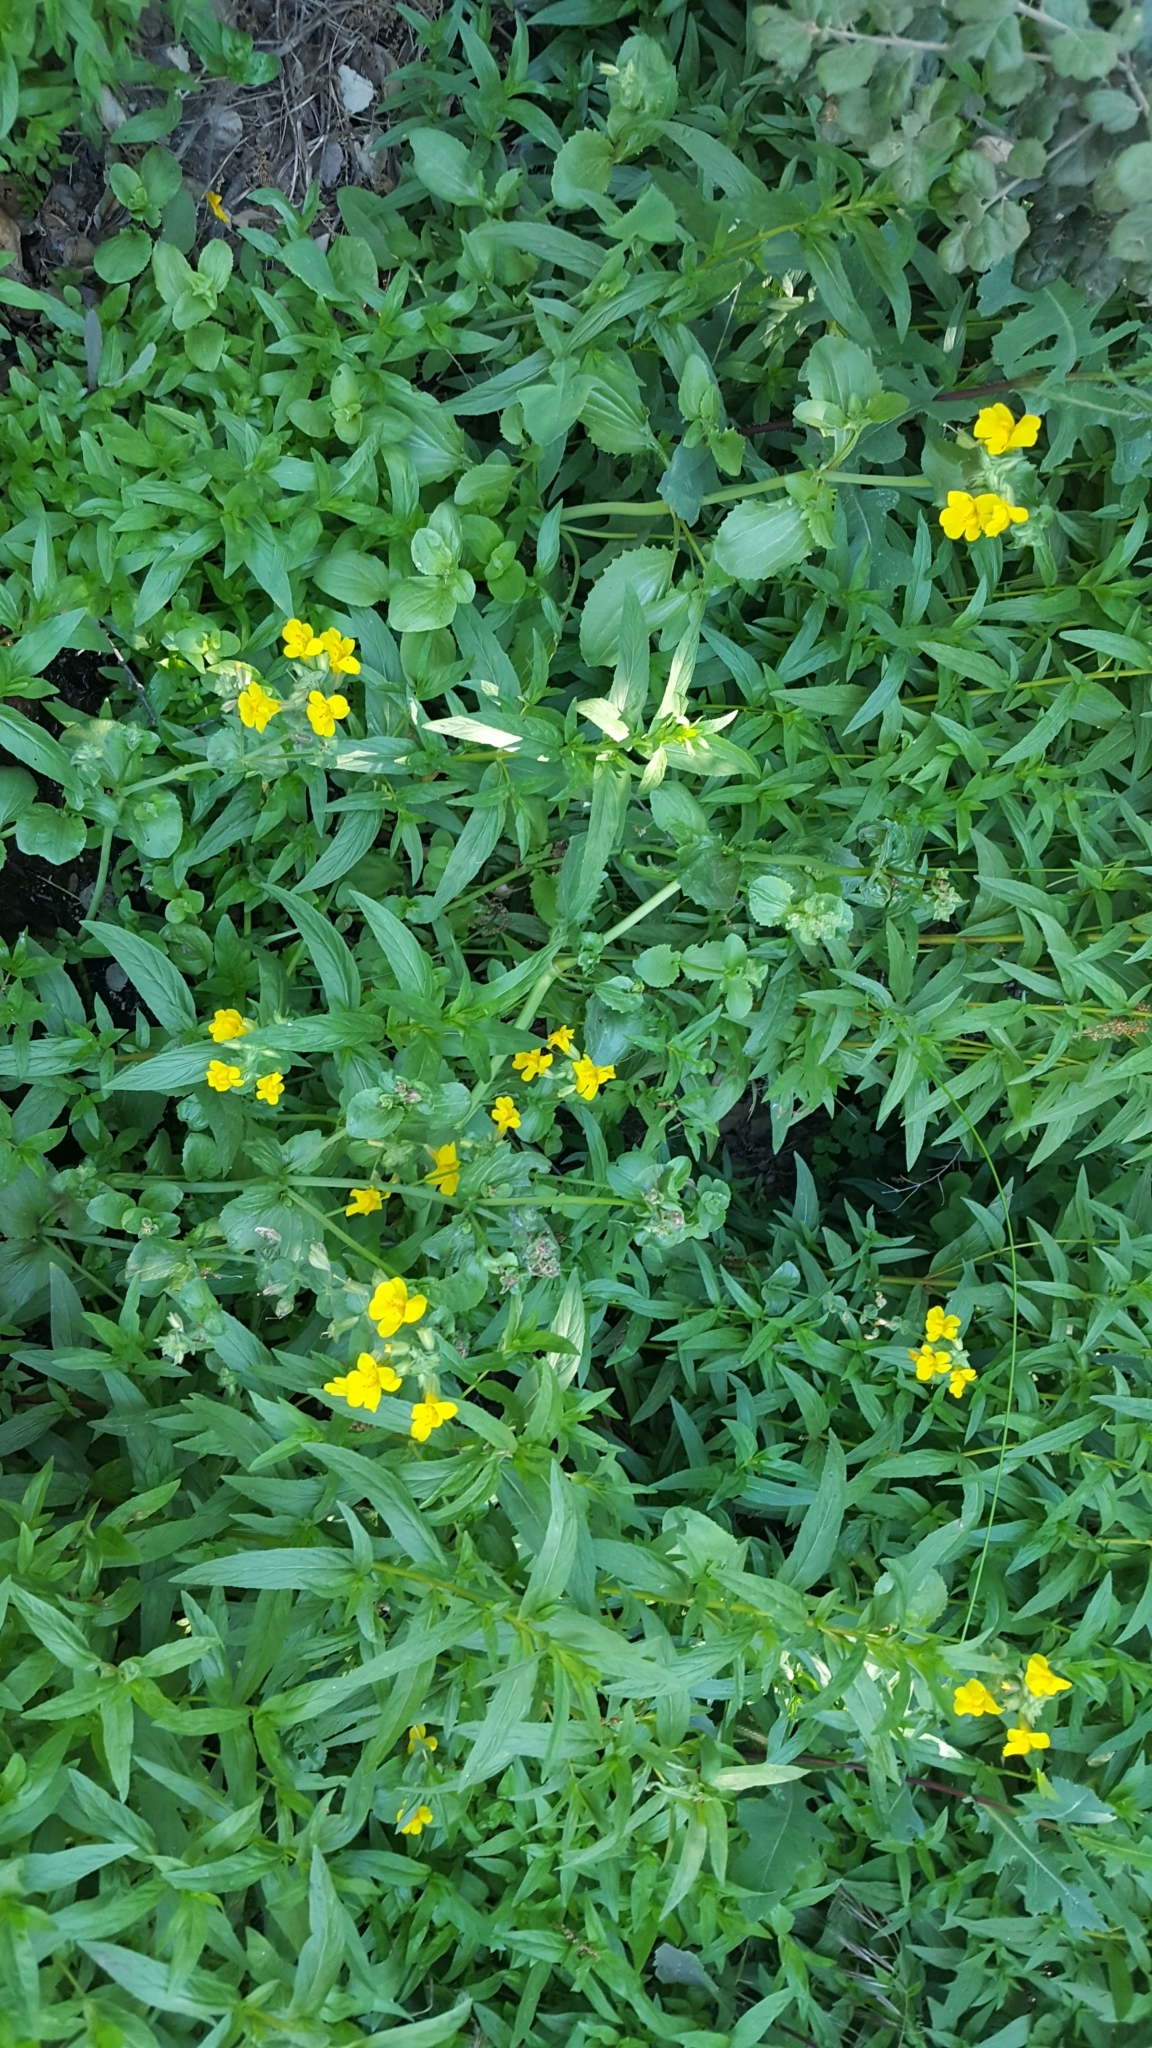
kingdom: Plantae
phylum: Tracheophyta
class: Magnoliopsida
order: Lamiales
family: Phrymaceae
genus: Erythranthe
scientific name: Erythranthe guttata
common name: Monkeyflower
